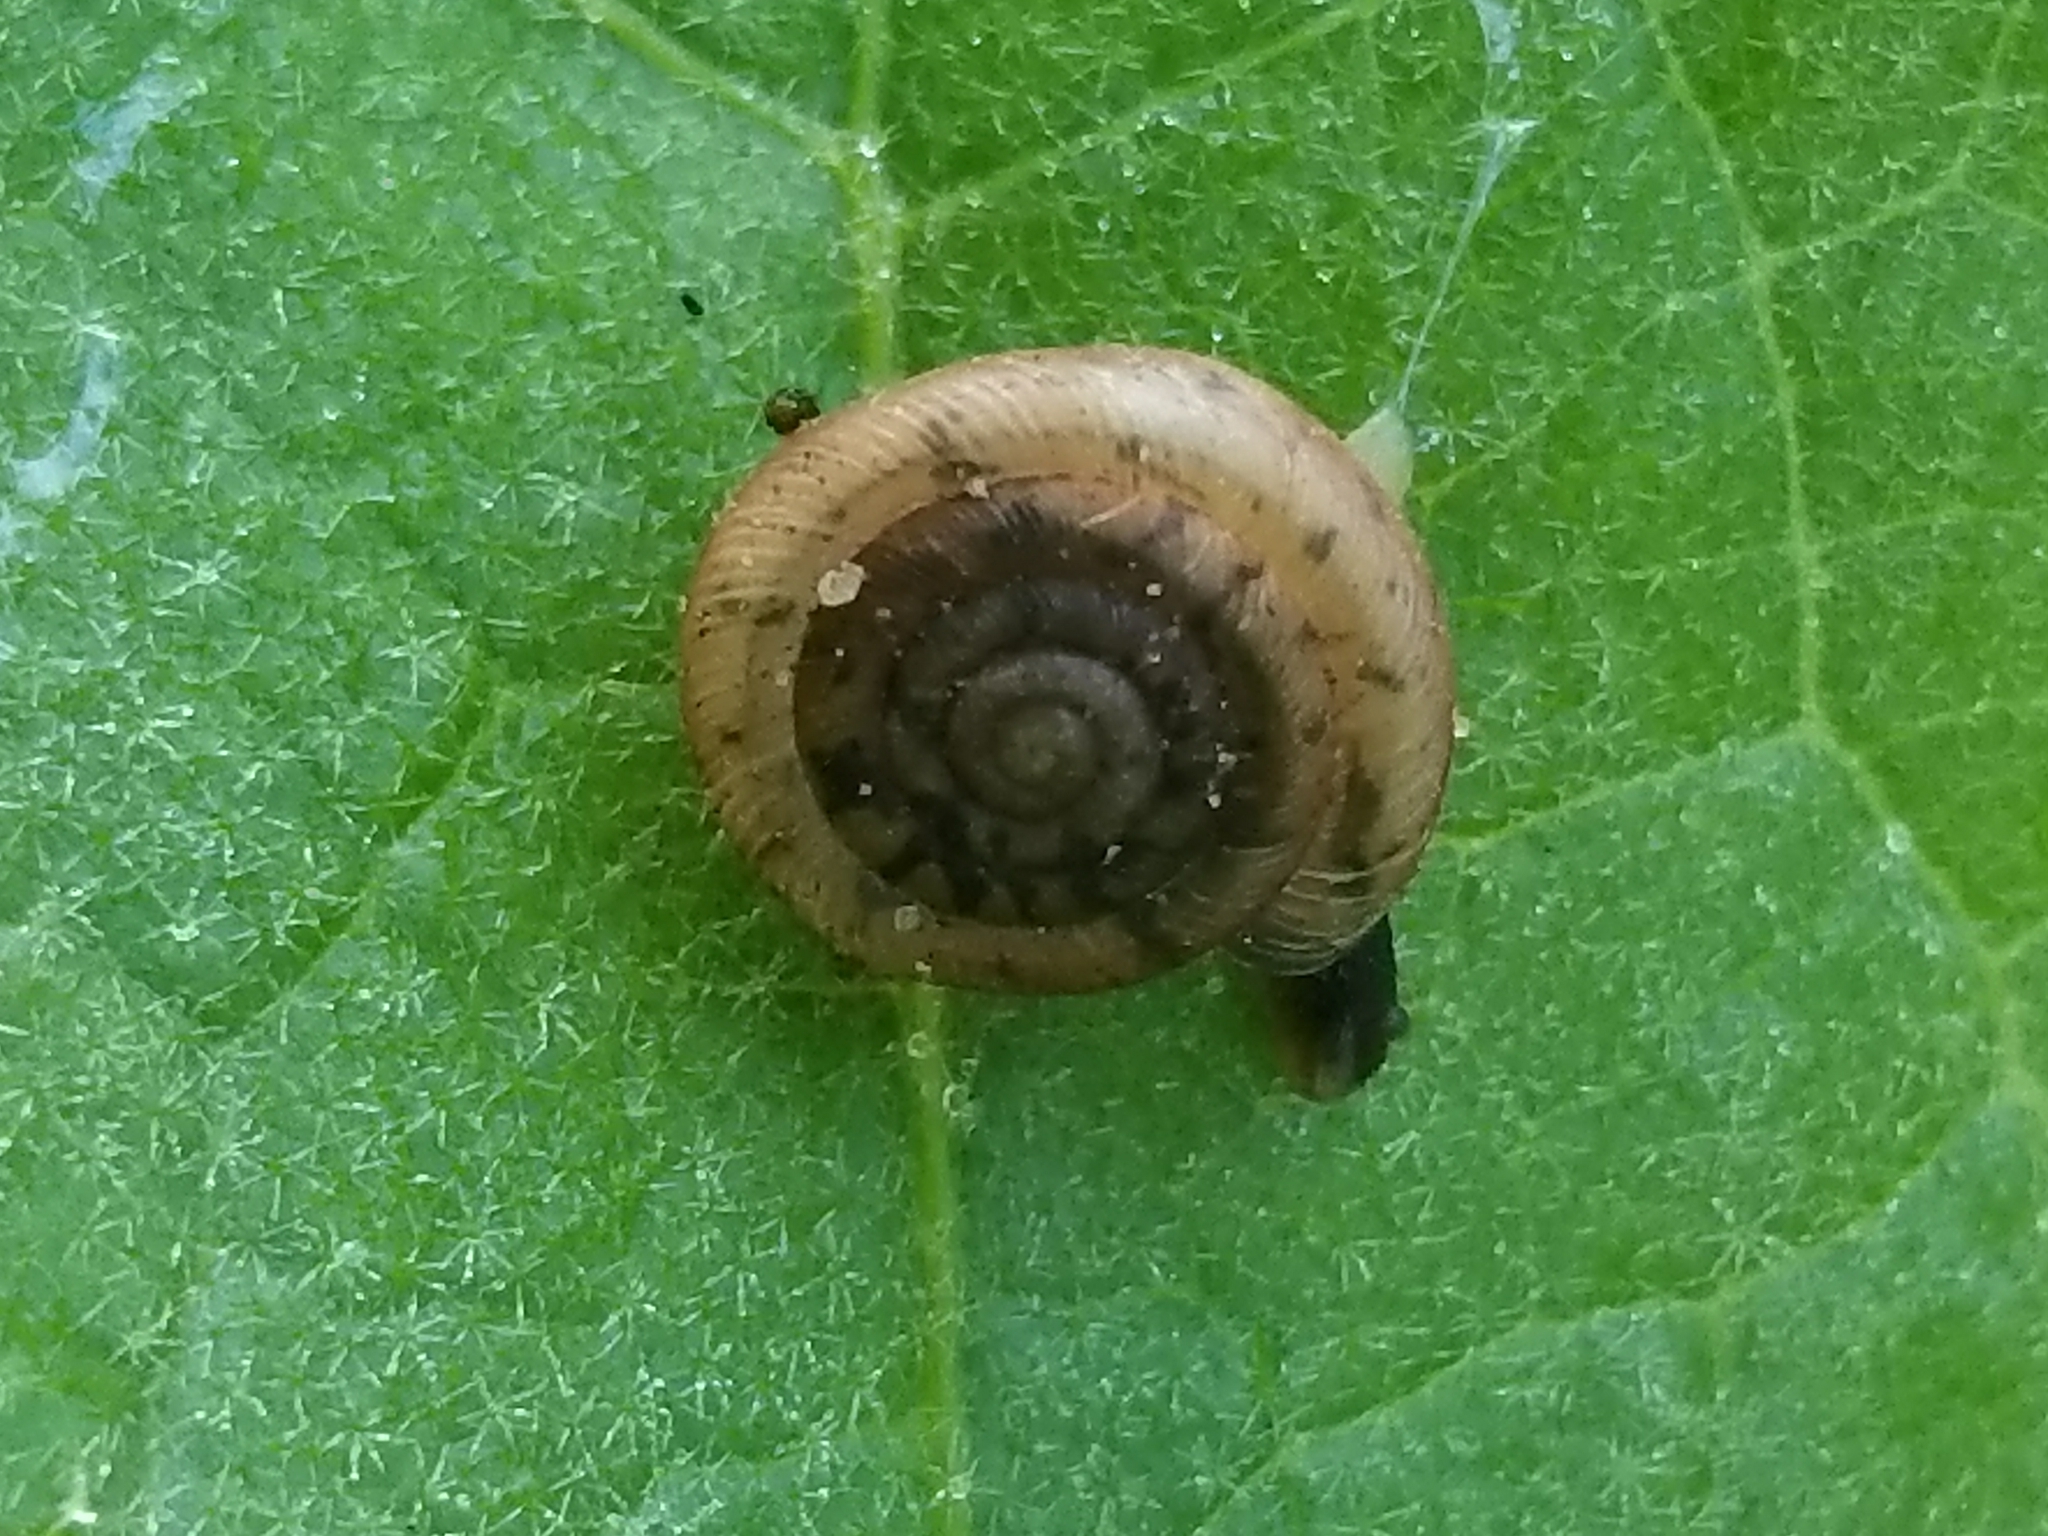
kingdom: Animalia
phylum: Mollusca
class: Gastropoda
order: Stylommatophora
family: Polygyridae
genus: Polygyra
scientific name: Polygyra cereolus
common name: Southern flatcone snail
